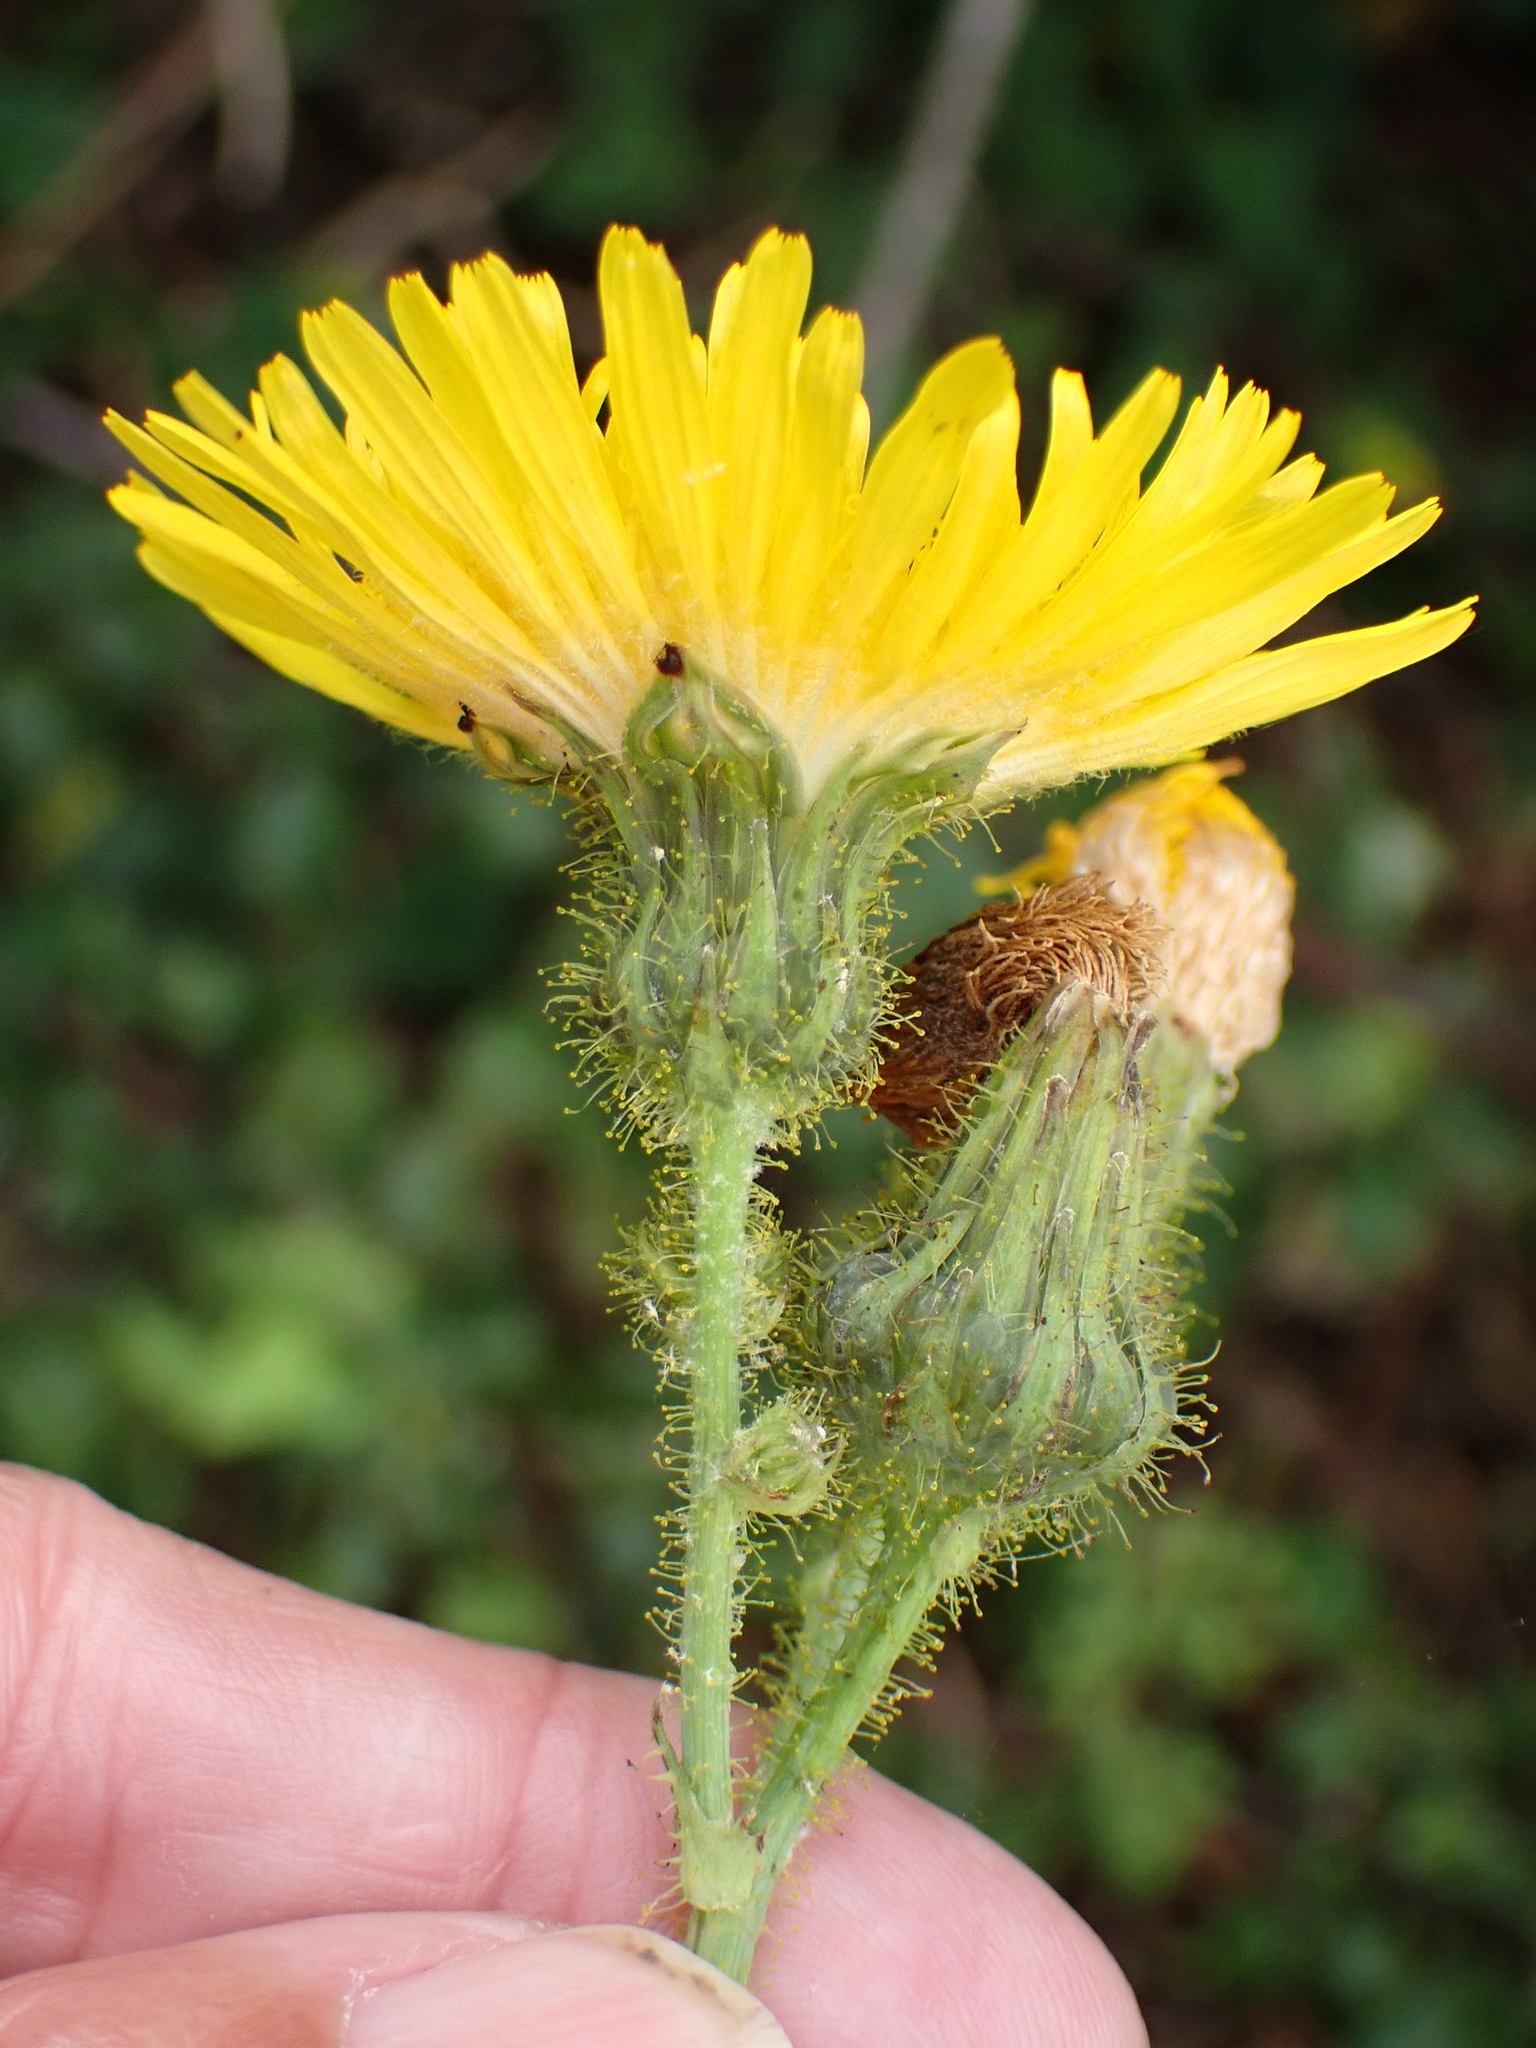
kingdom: Plantae
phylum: Tracheophyta
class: Magnoliopsida
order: Asterales
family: Asteraceae
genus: Sonchus
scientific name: Sonchus arvensis
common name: Perennial sow-thistle
